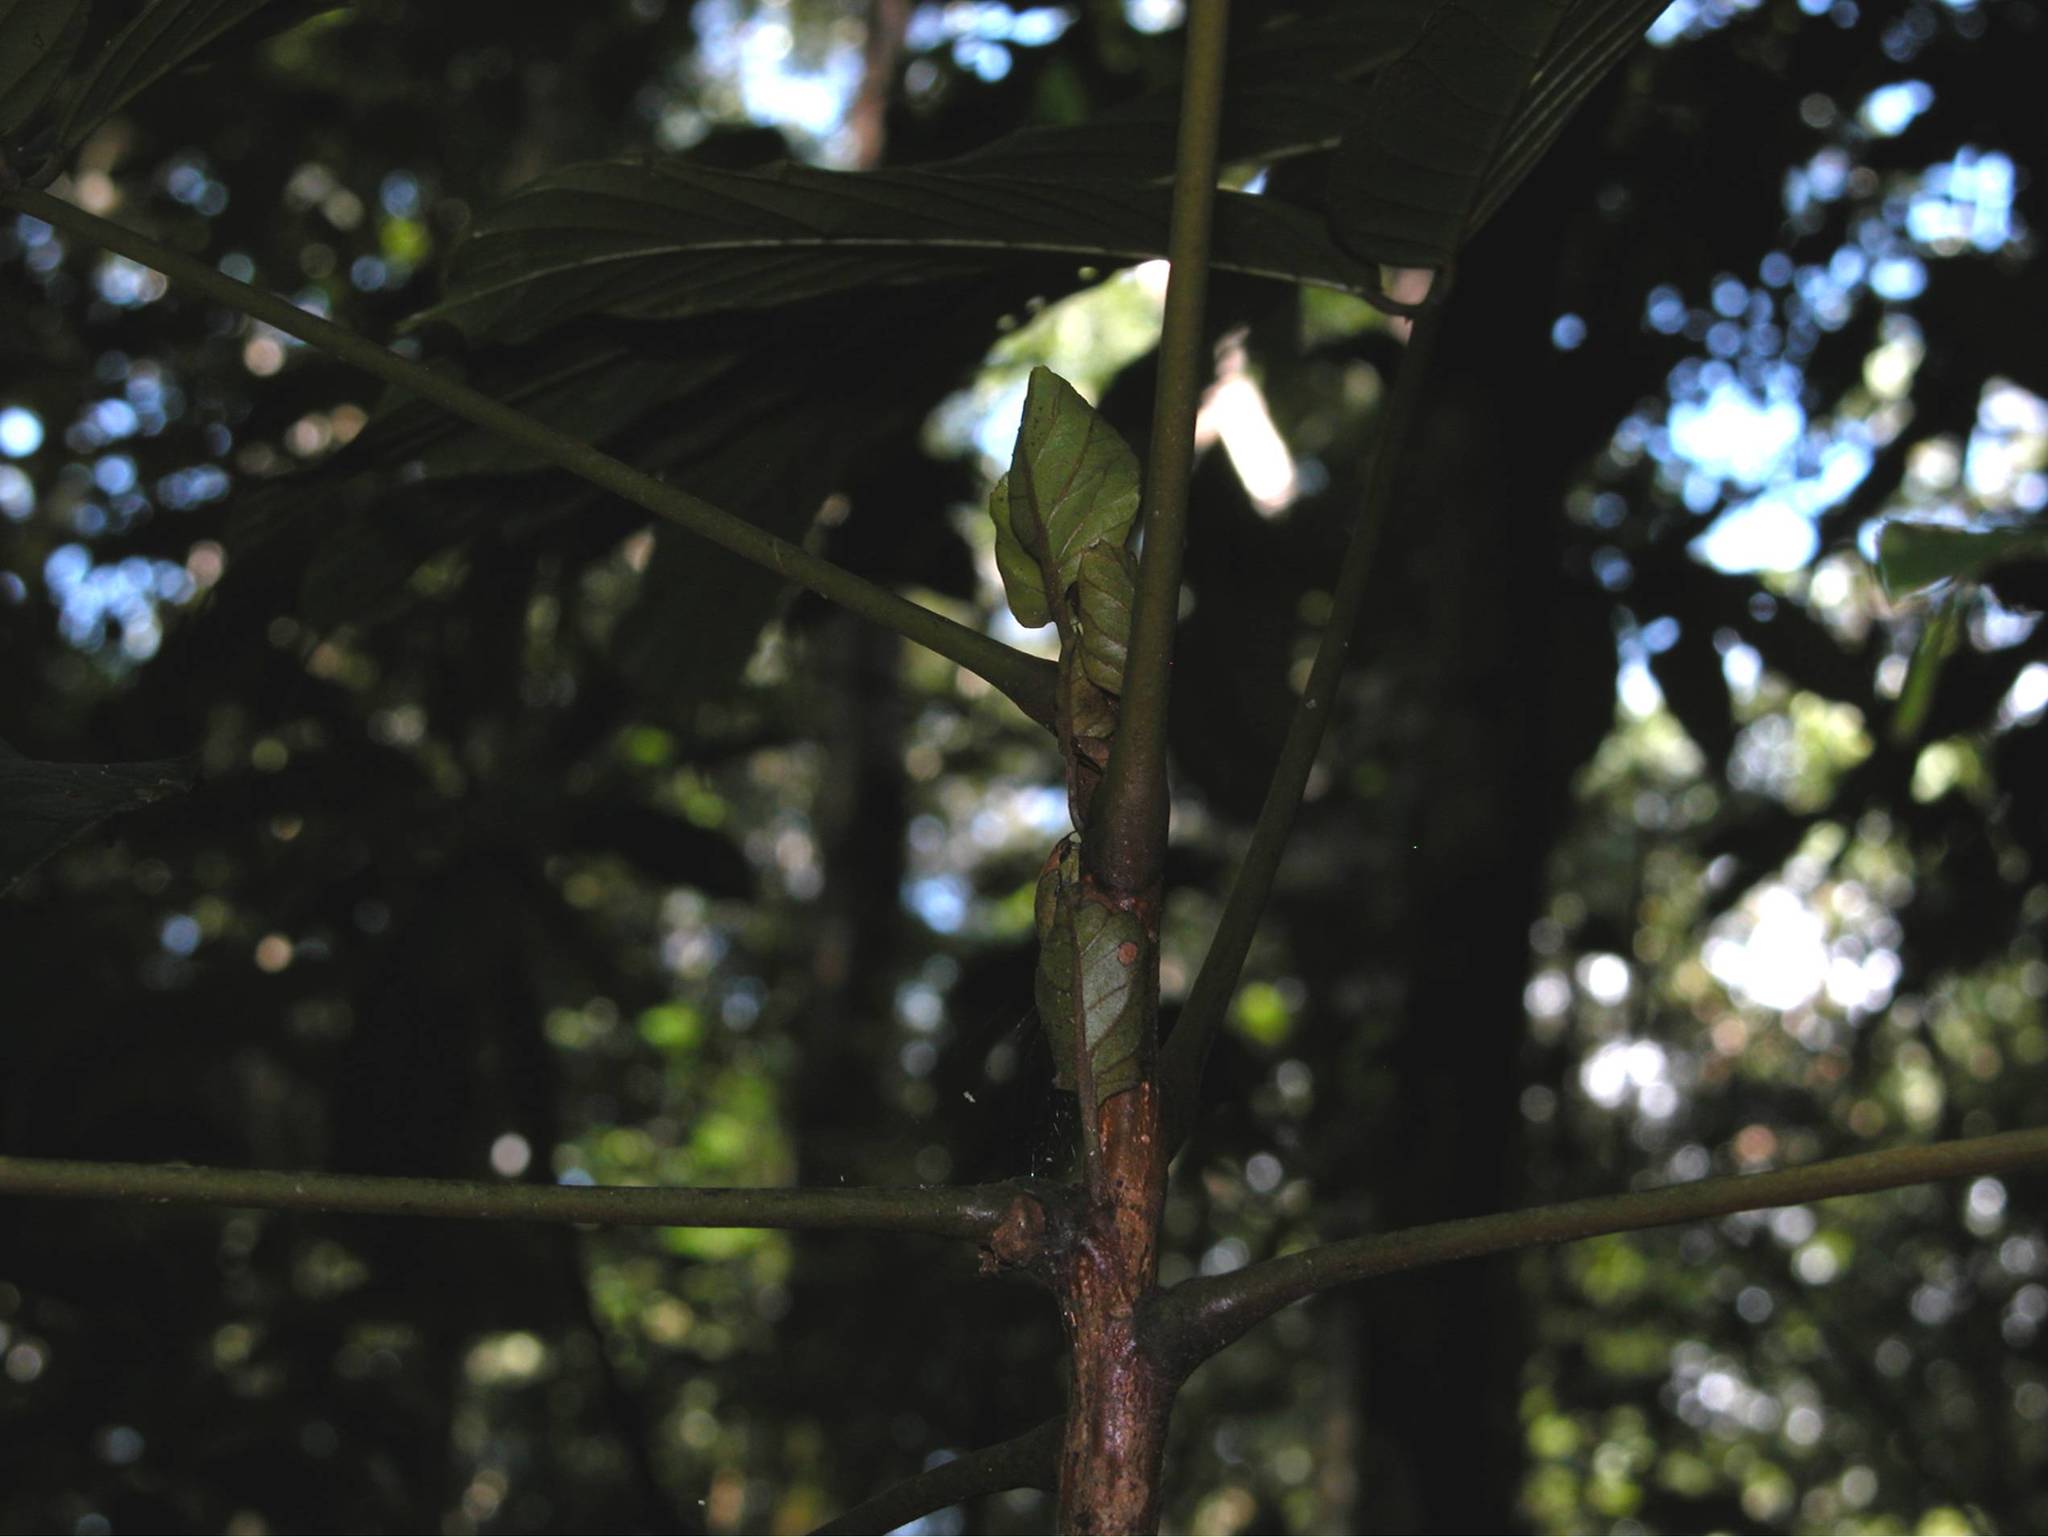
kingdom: Plantae
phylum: Tracheophyta
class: Magnoliopsida
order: Fabales
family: Fabaceae
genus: Tachigali
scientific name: Tachigali versicolor
